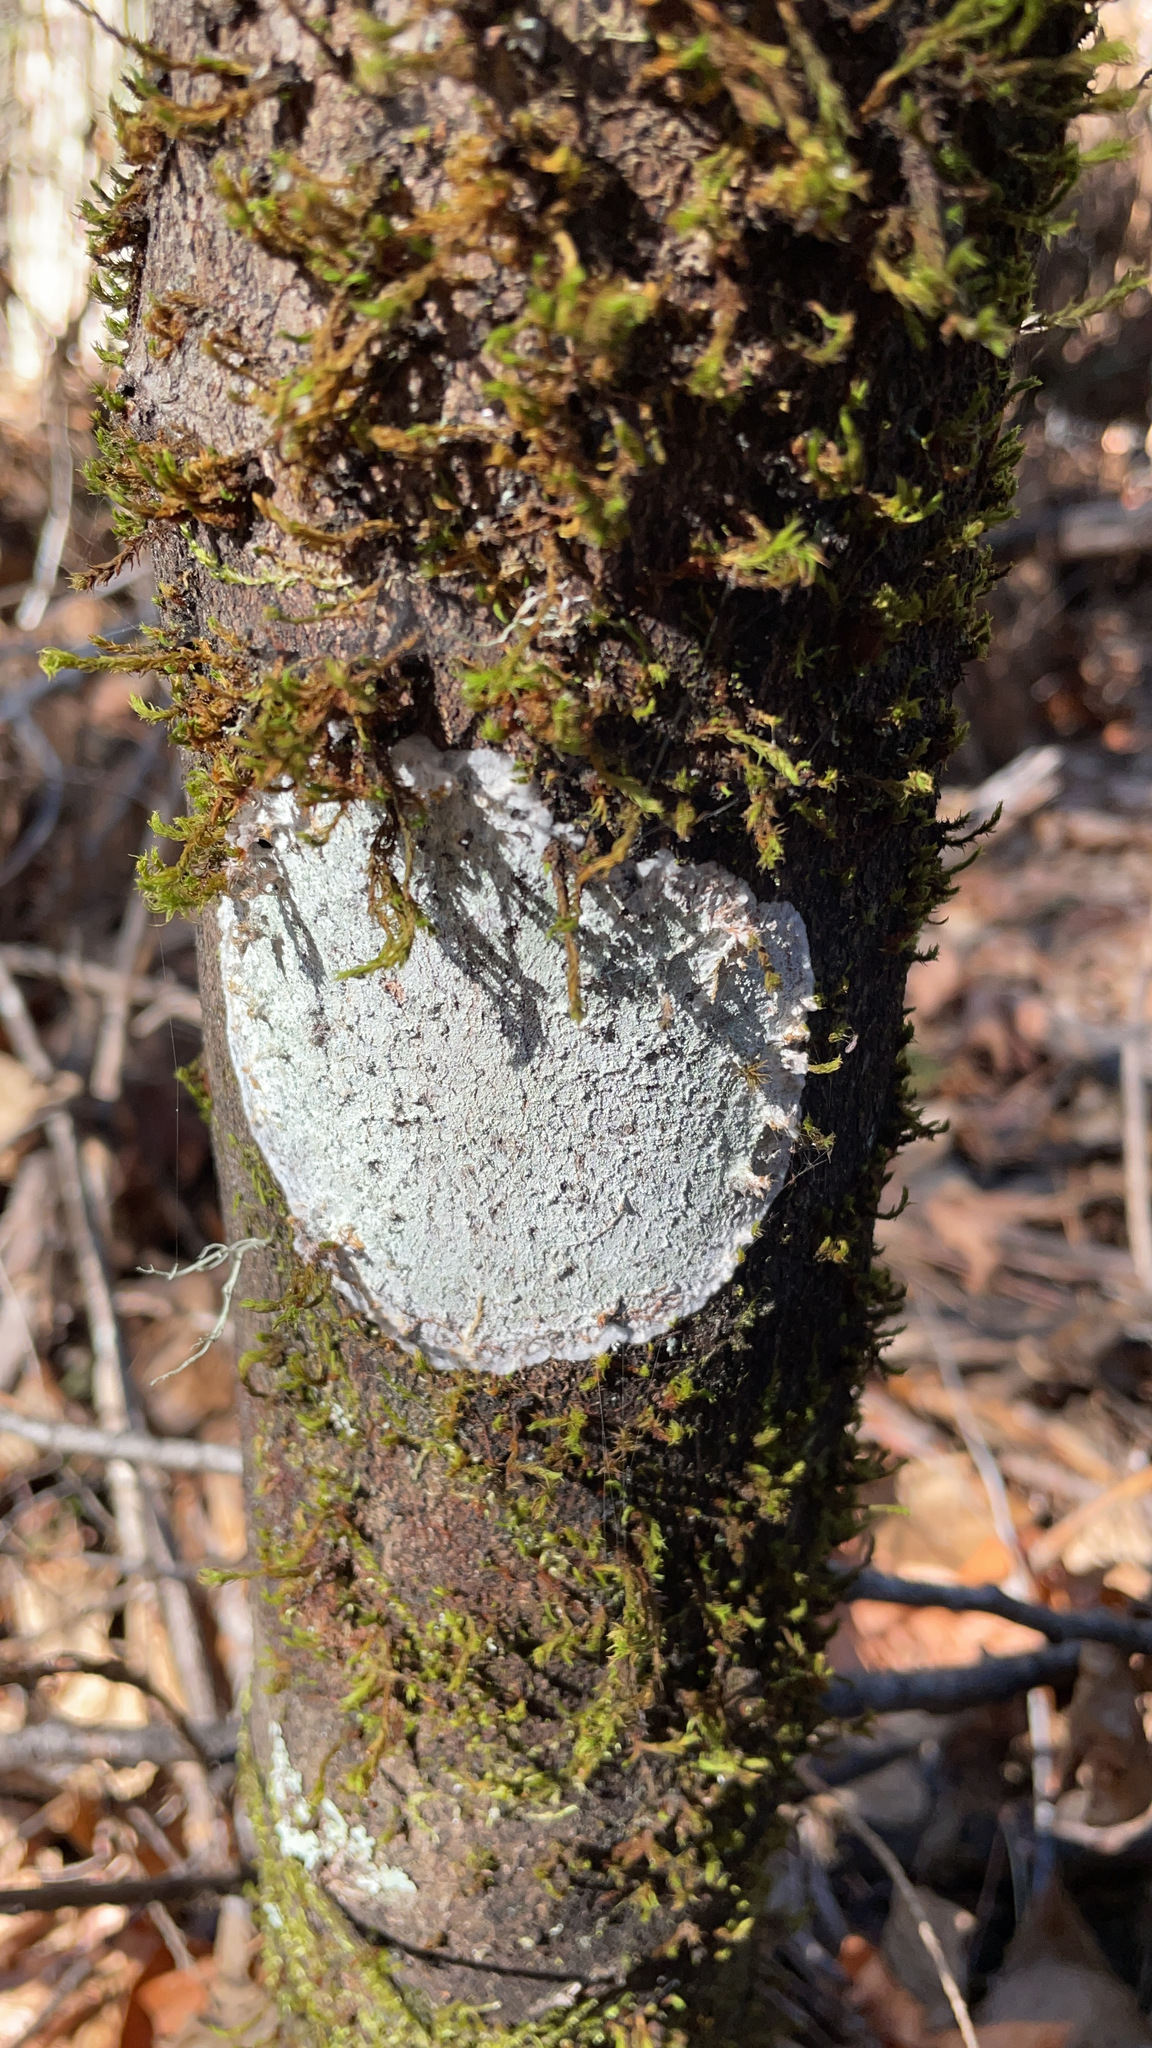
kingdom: Fungi
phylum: Ascomycota
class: Lecanoromycetes
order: Ostropales
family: Phlyctidaceae
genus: Phlyctis
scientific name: Phlyctis argena
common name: Whitewash lichen
